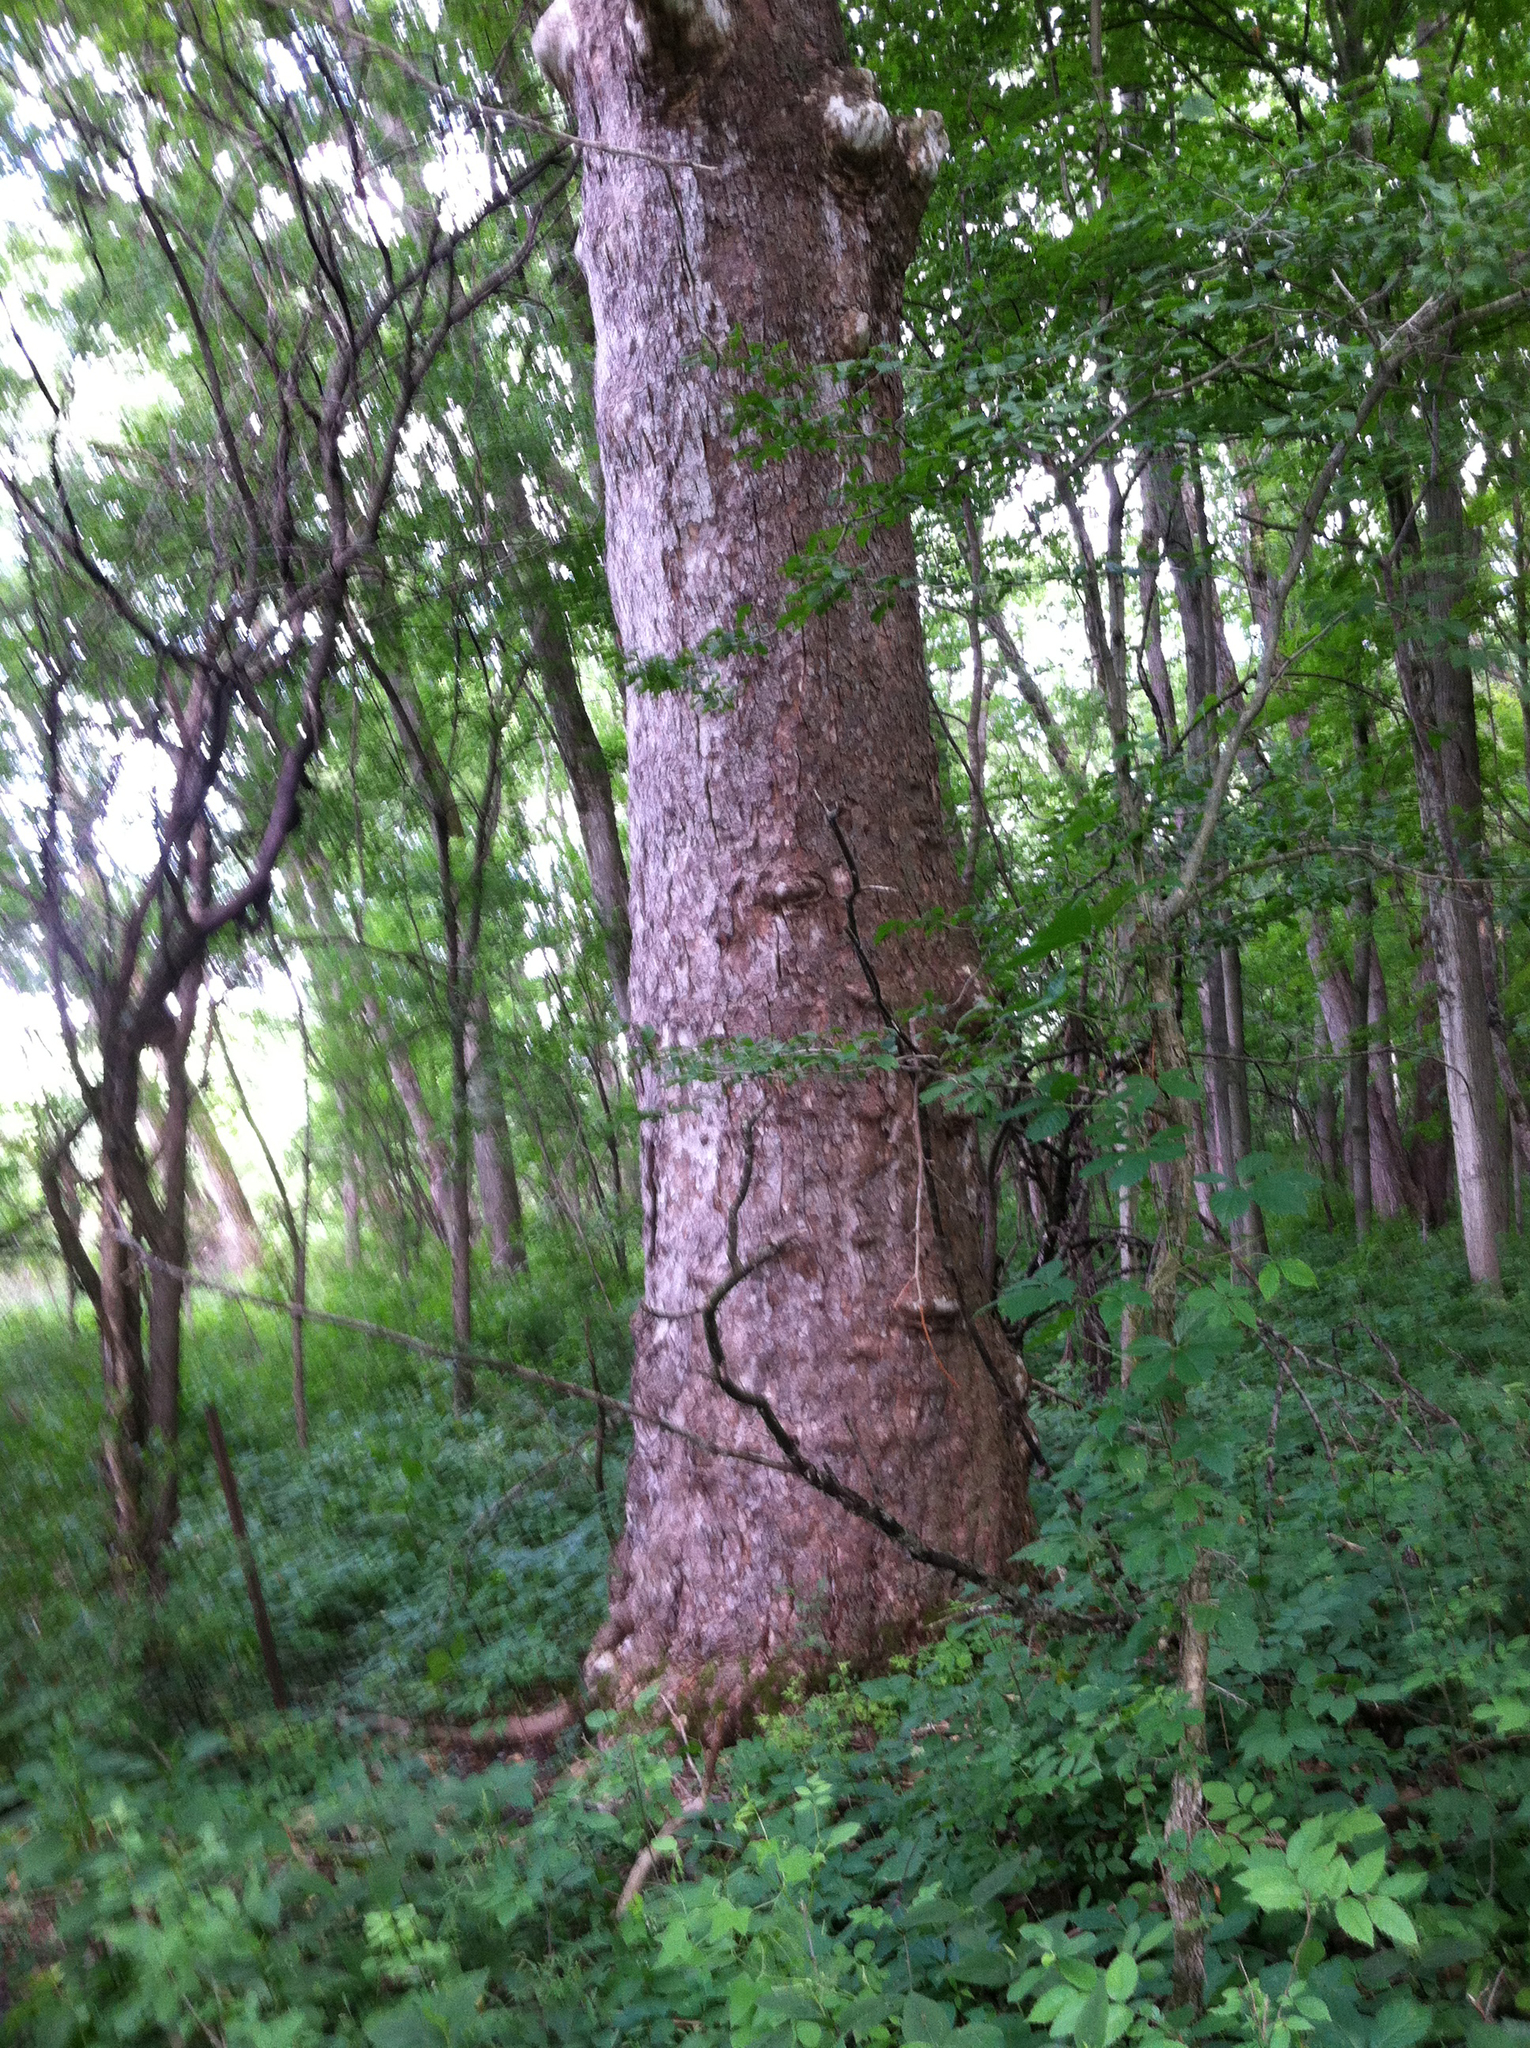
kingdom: Plantae
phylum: Tracheophyta
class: Magnoliopsida
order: Proteales
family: Platanaceae
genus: Platanus
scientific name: Platanus occidentalis
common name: American sycamore
